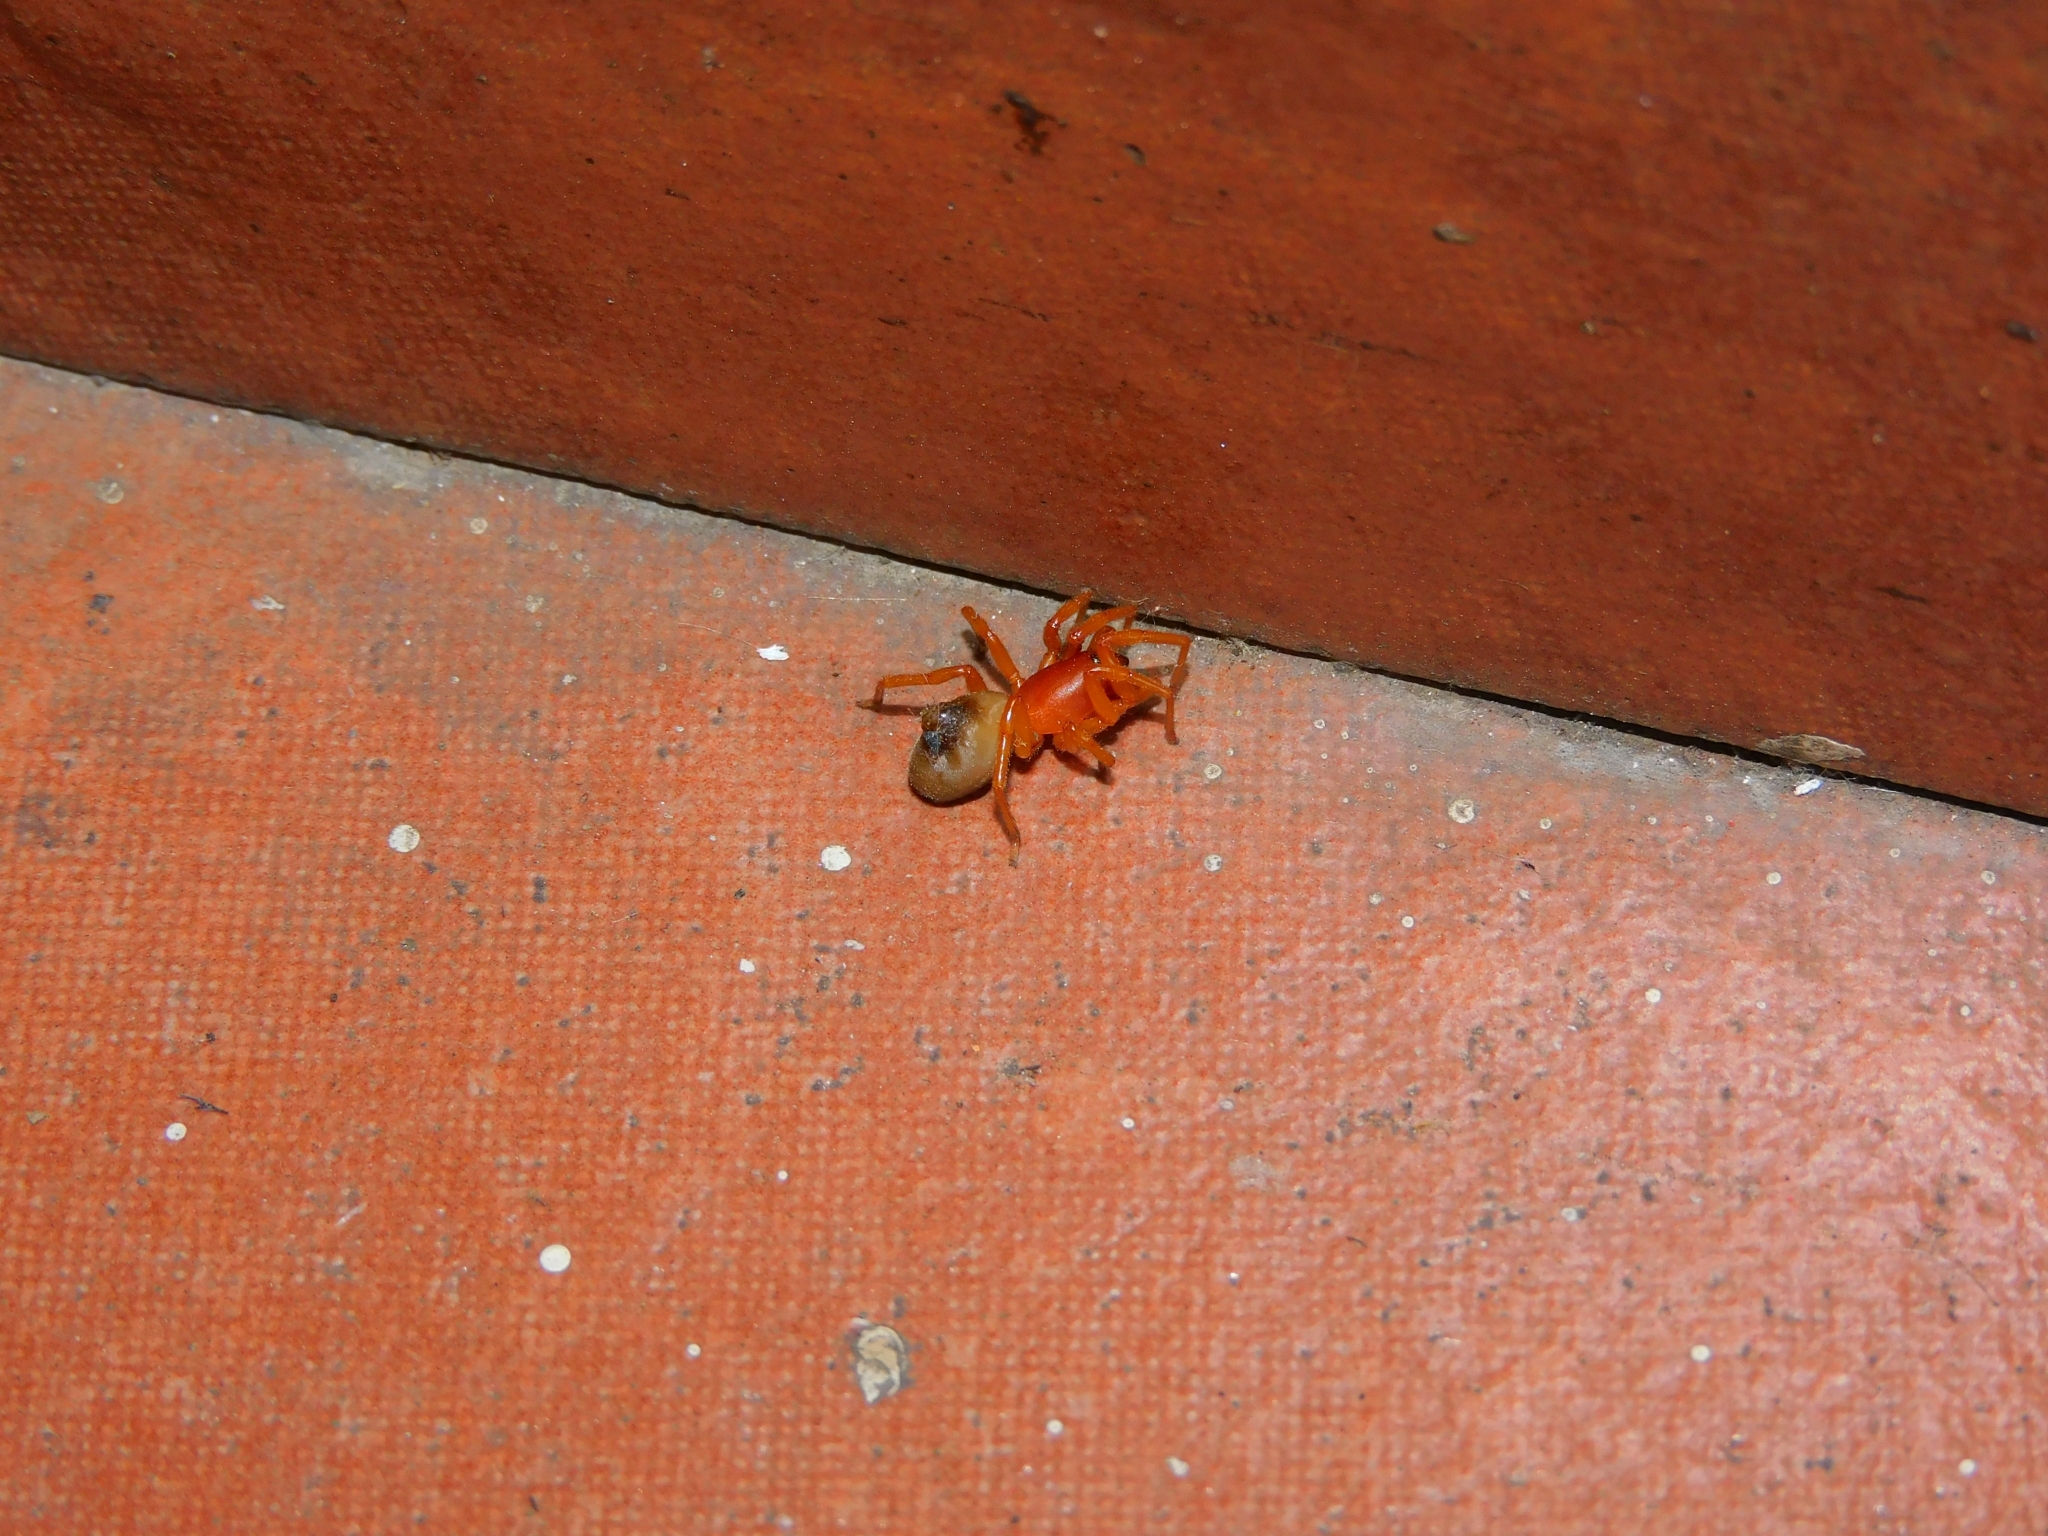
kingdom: Animalia
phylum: Arthropoda
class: Arachnida
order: Araneae
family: Dysderidae
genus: Dysdera
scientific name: Dysdera crocata
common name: Woodlouse spider
